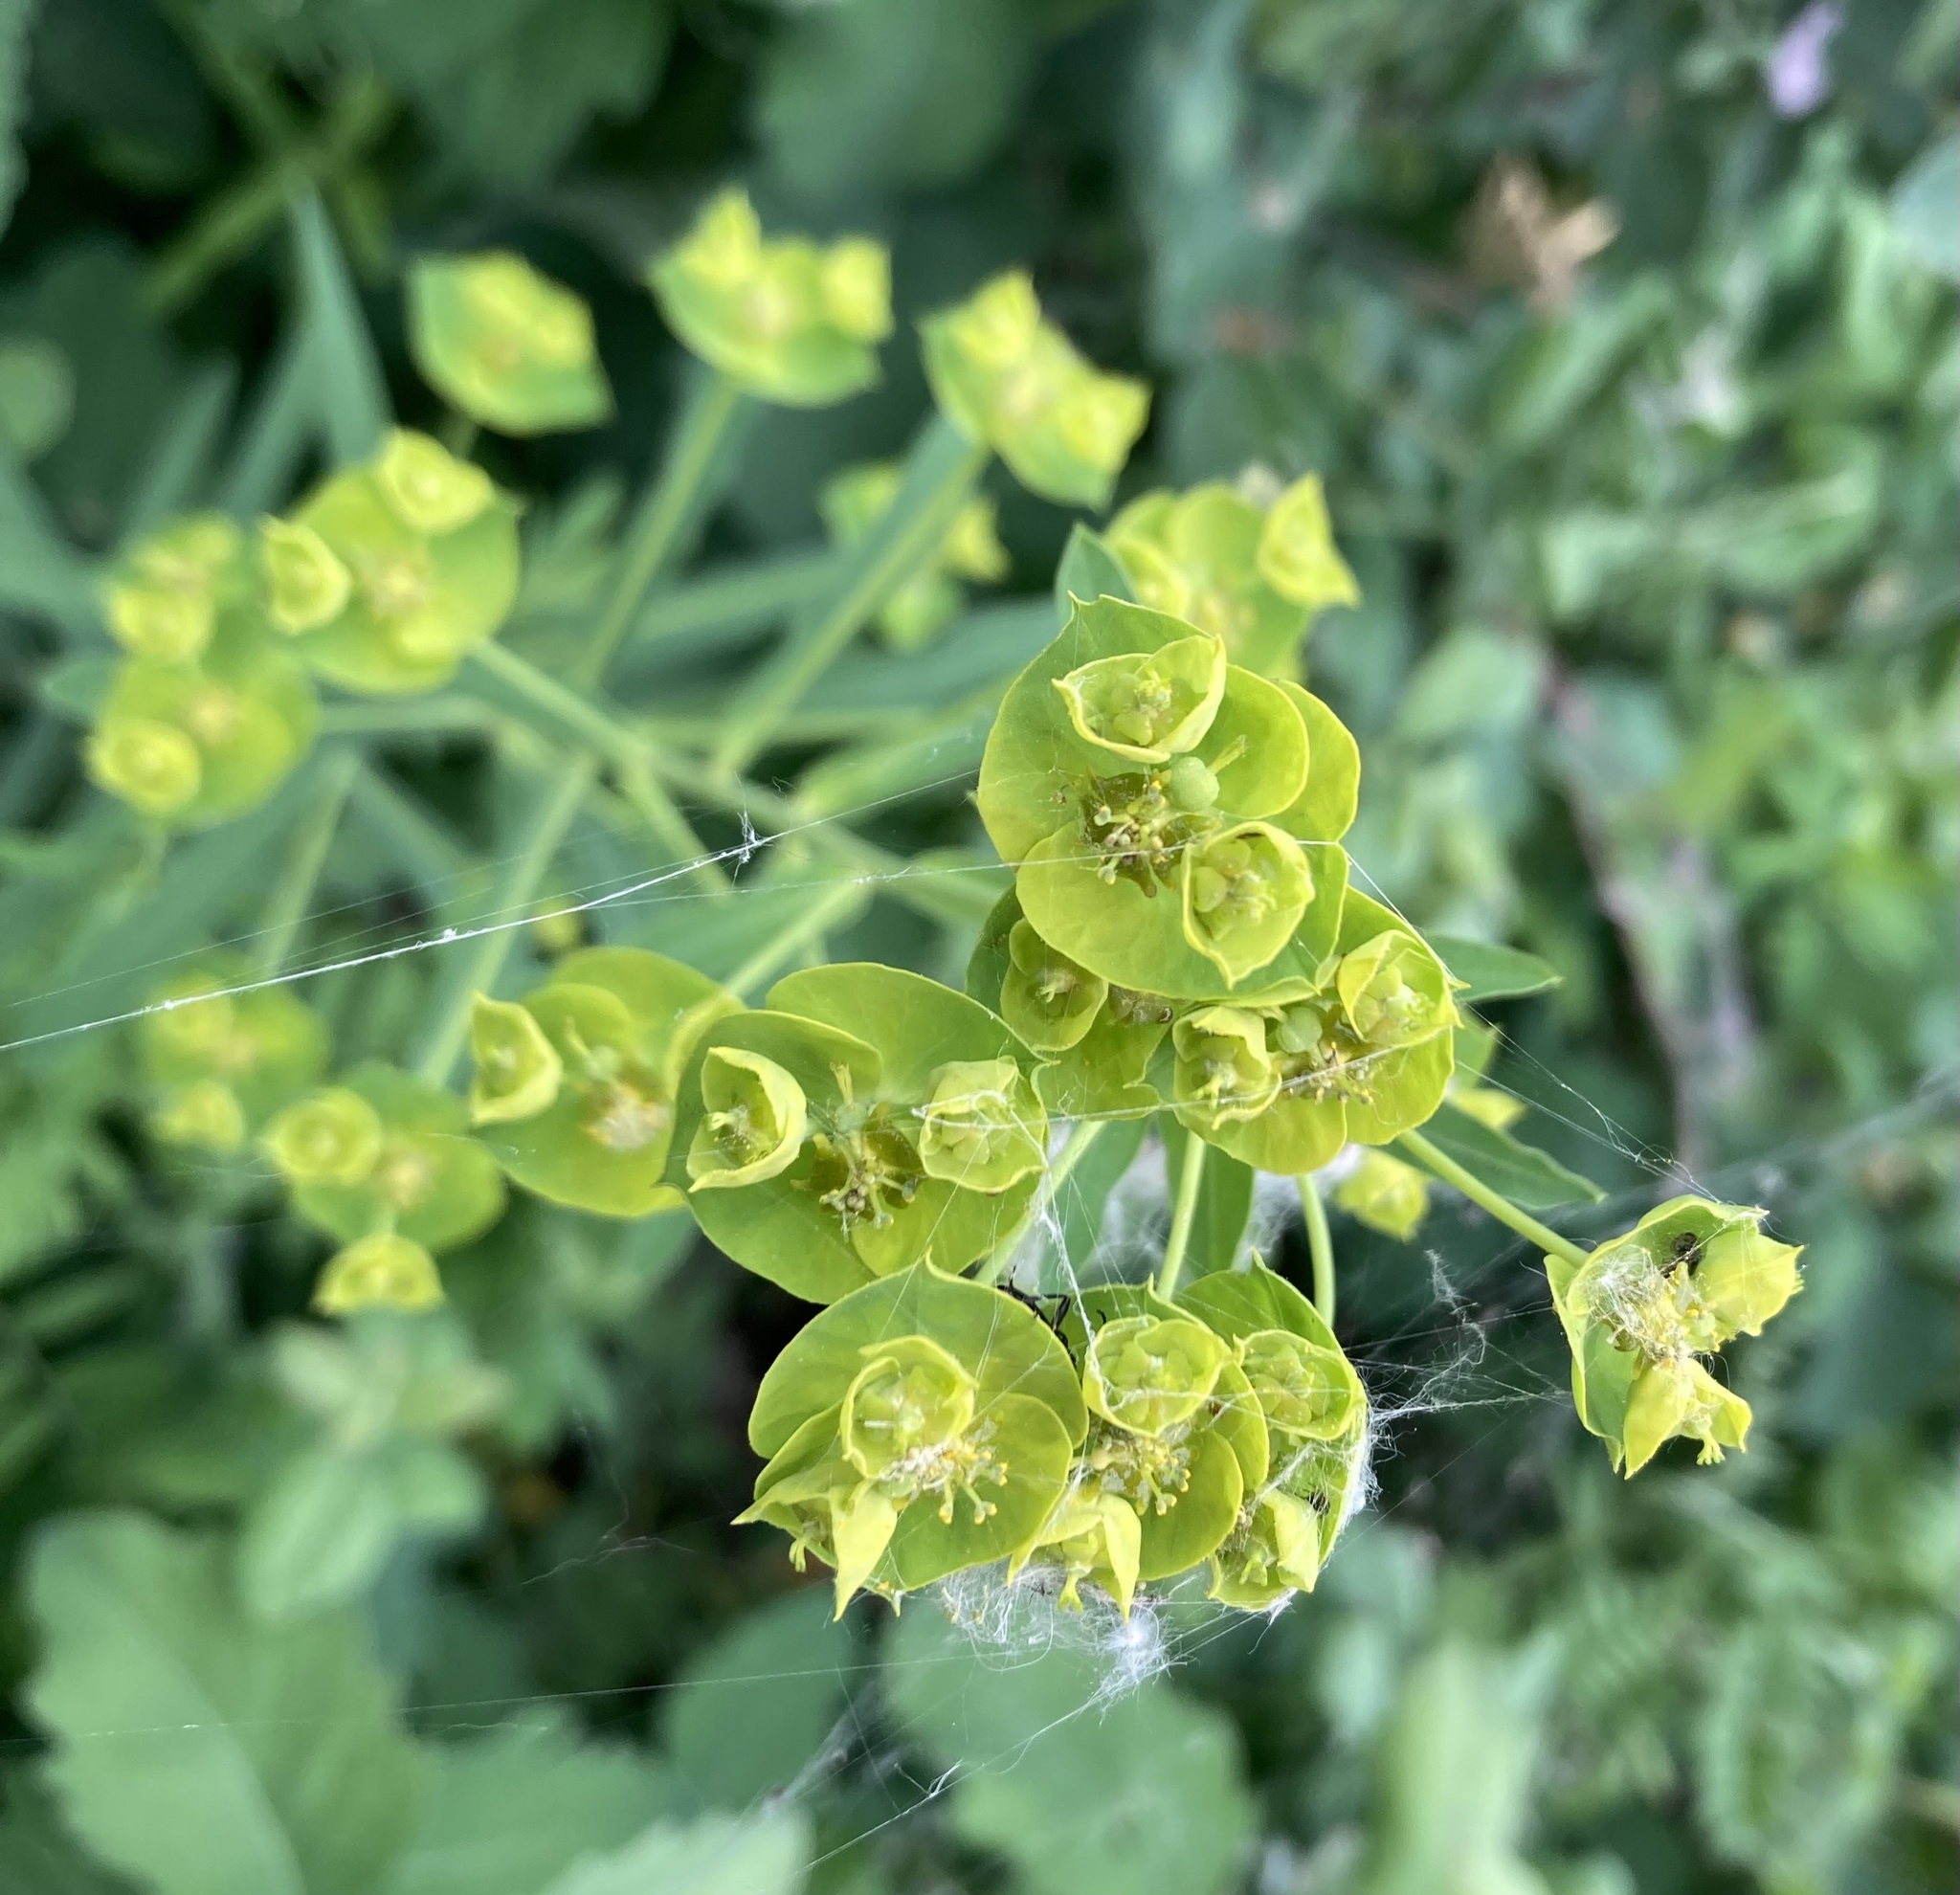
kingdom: Plantae
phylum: Tracheophyta
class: Magnoliopsida
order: Malpighiales
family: Euphorbiaceae
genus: Euphorbia
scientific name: Euphorbia virgata
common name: Leafy spurge
